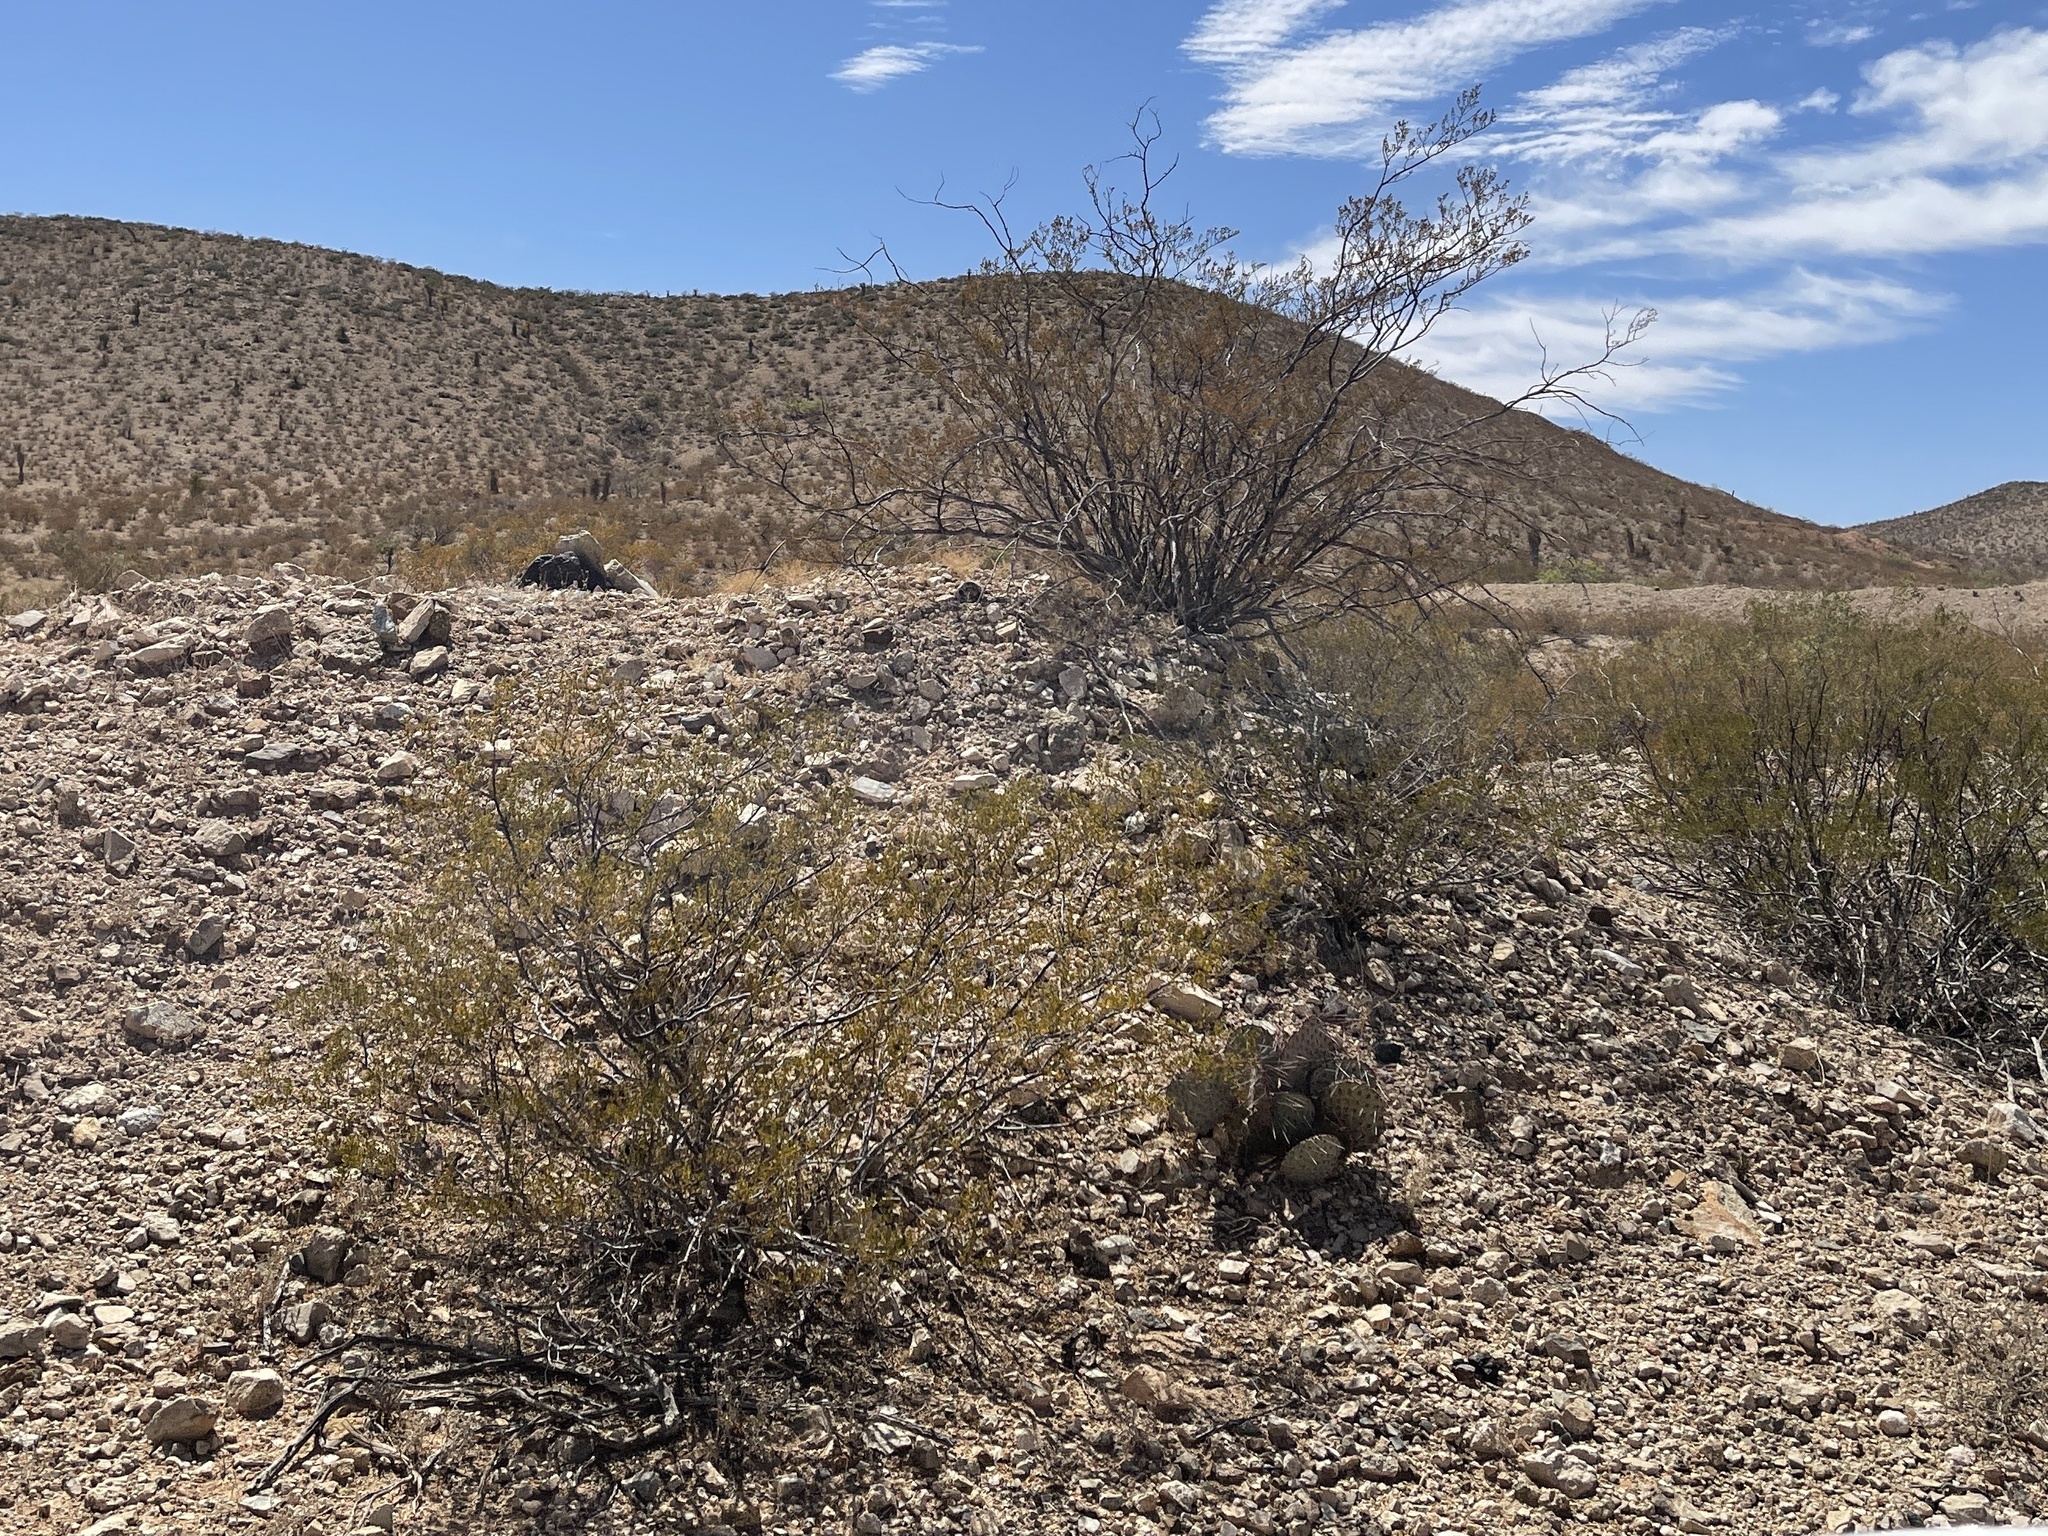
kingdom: Plantae
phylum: Tracheophyta
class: Magnoliopsida
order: Zygophyllales
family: Zygophyllaceae
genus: Larrea
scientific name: Larrea tridentata
